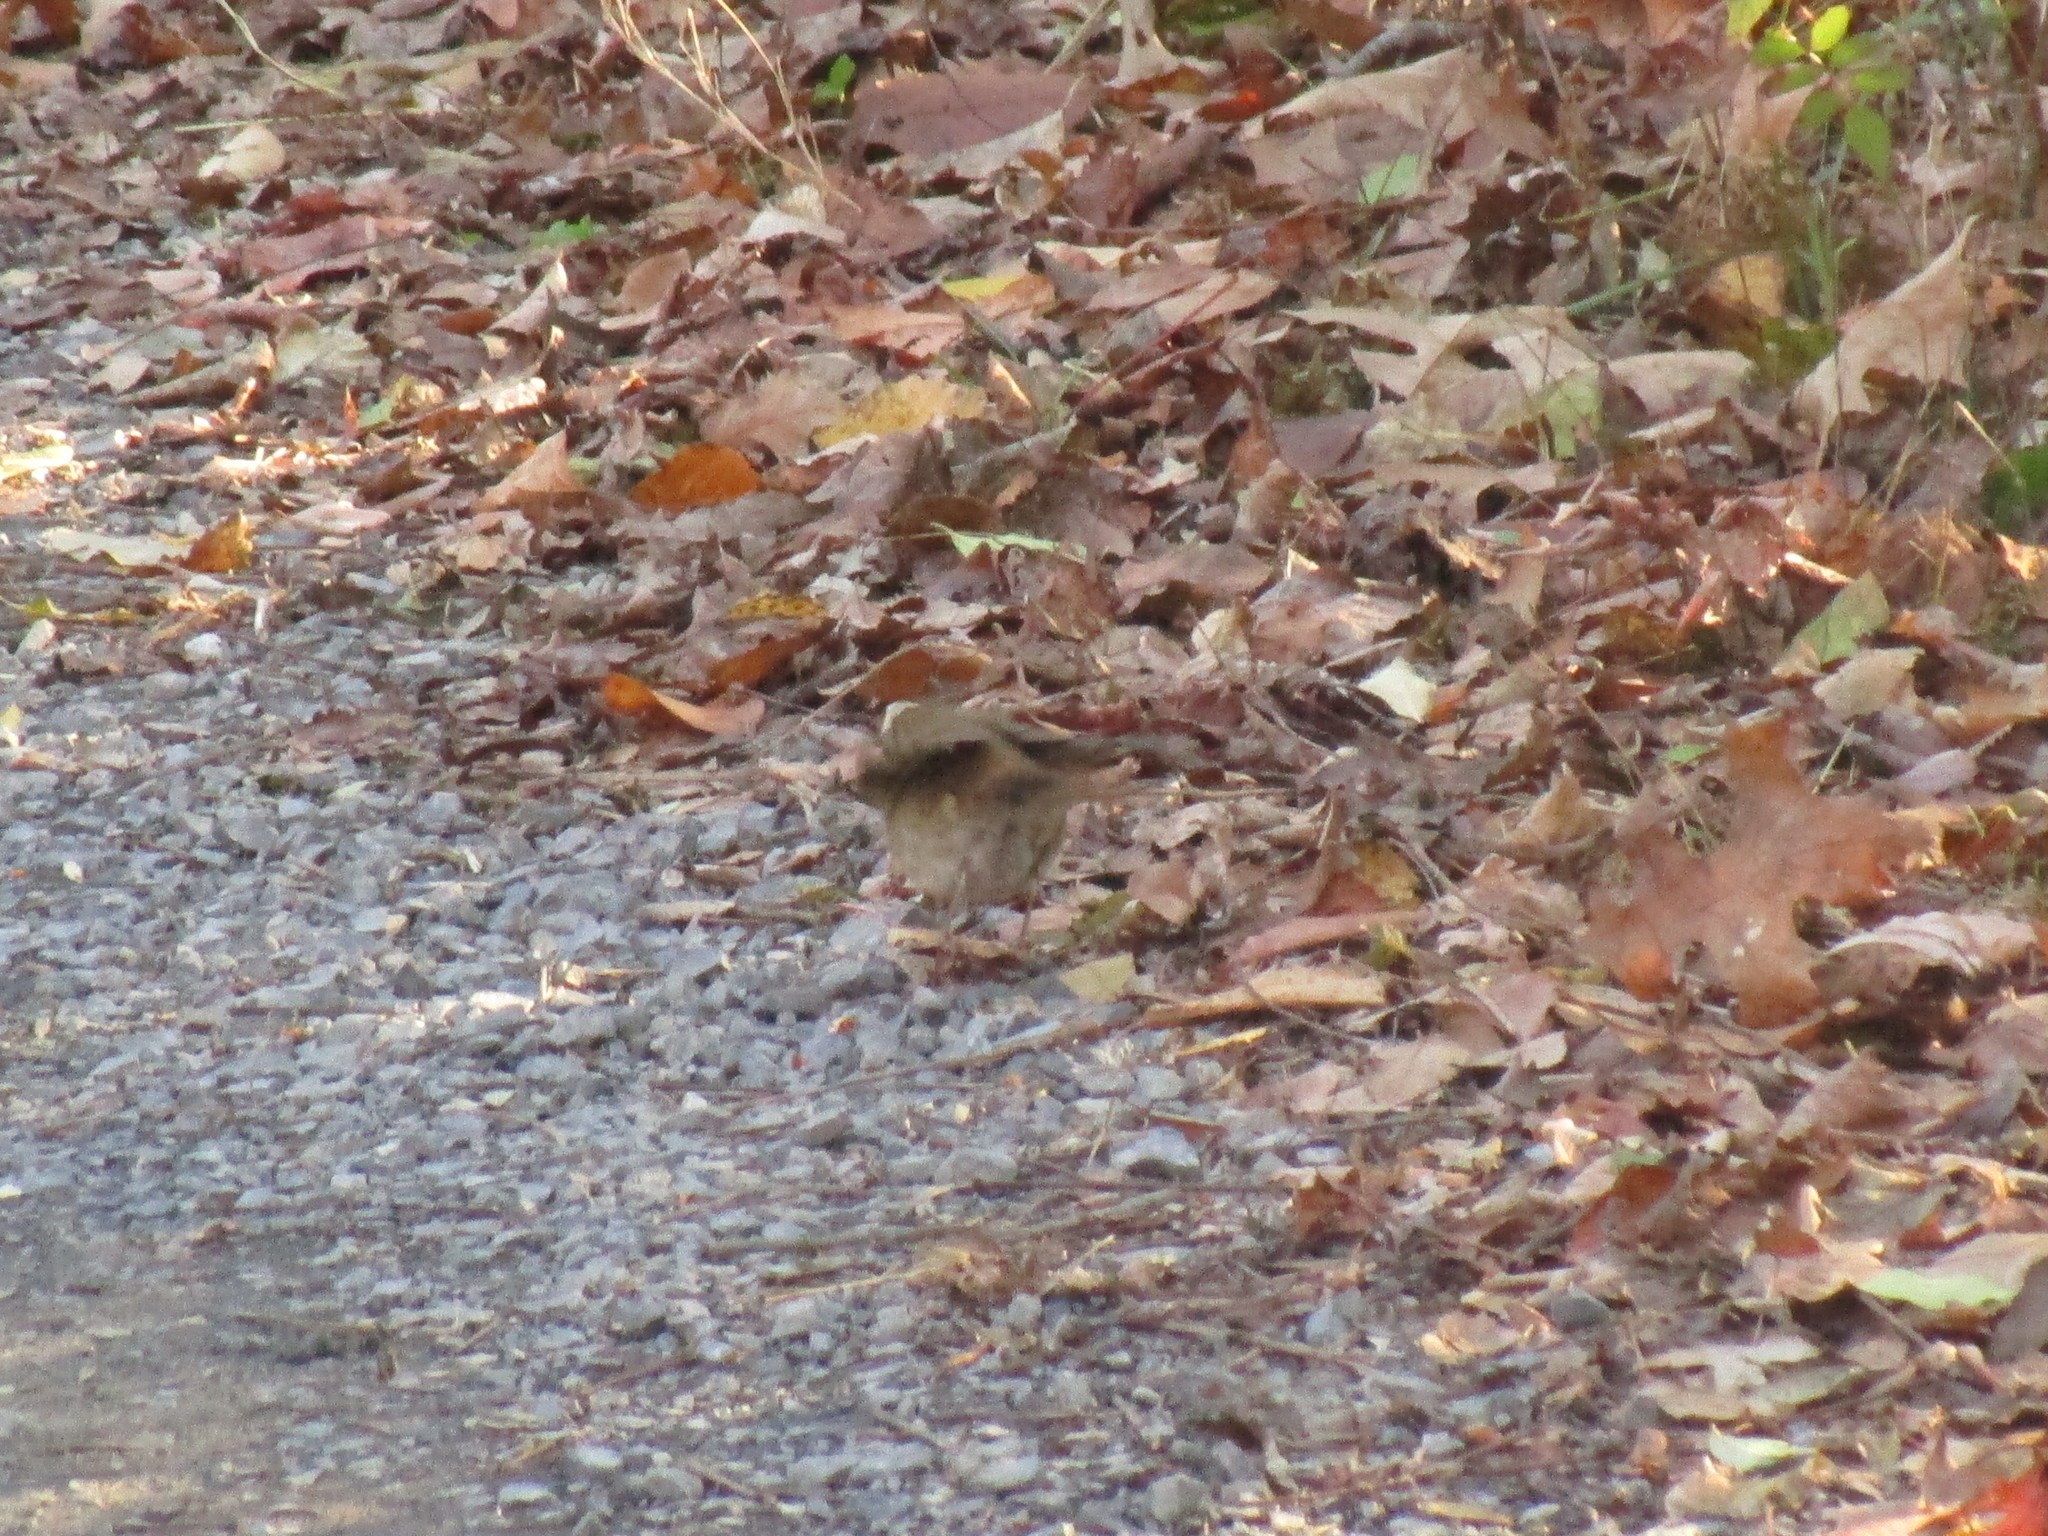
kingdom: Animalia
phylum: Chordata
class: Aves
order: Passeriformes
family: Turdidae
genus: Catharus
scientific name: Catharus guttatus
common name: Hermit thrush
